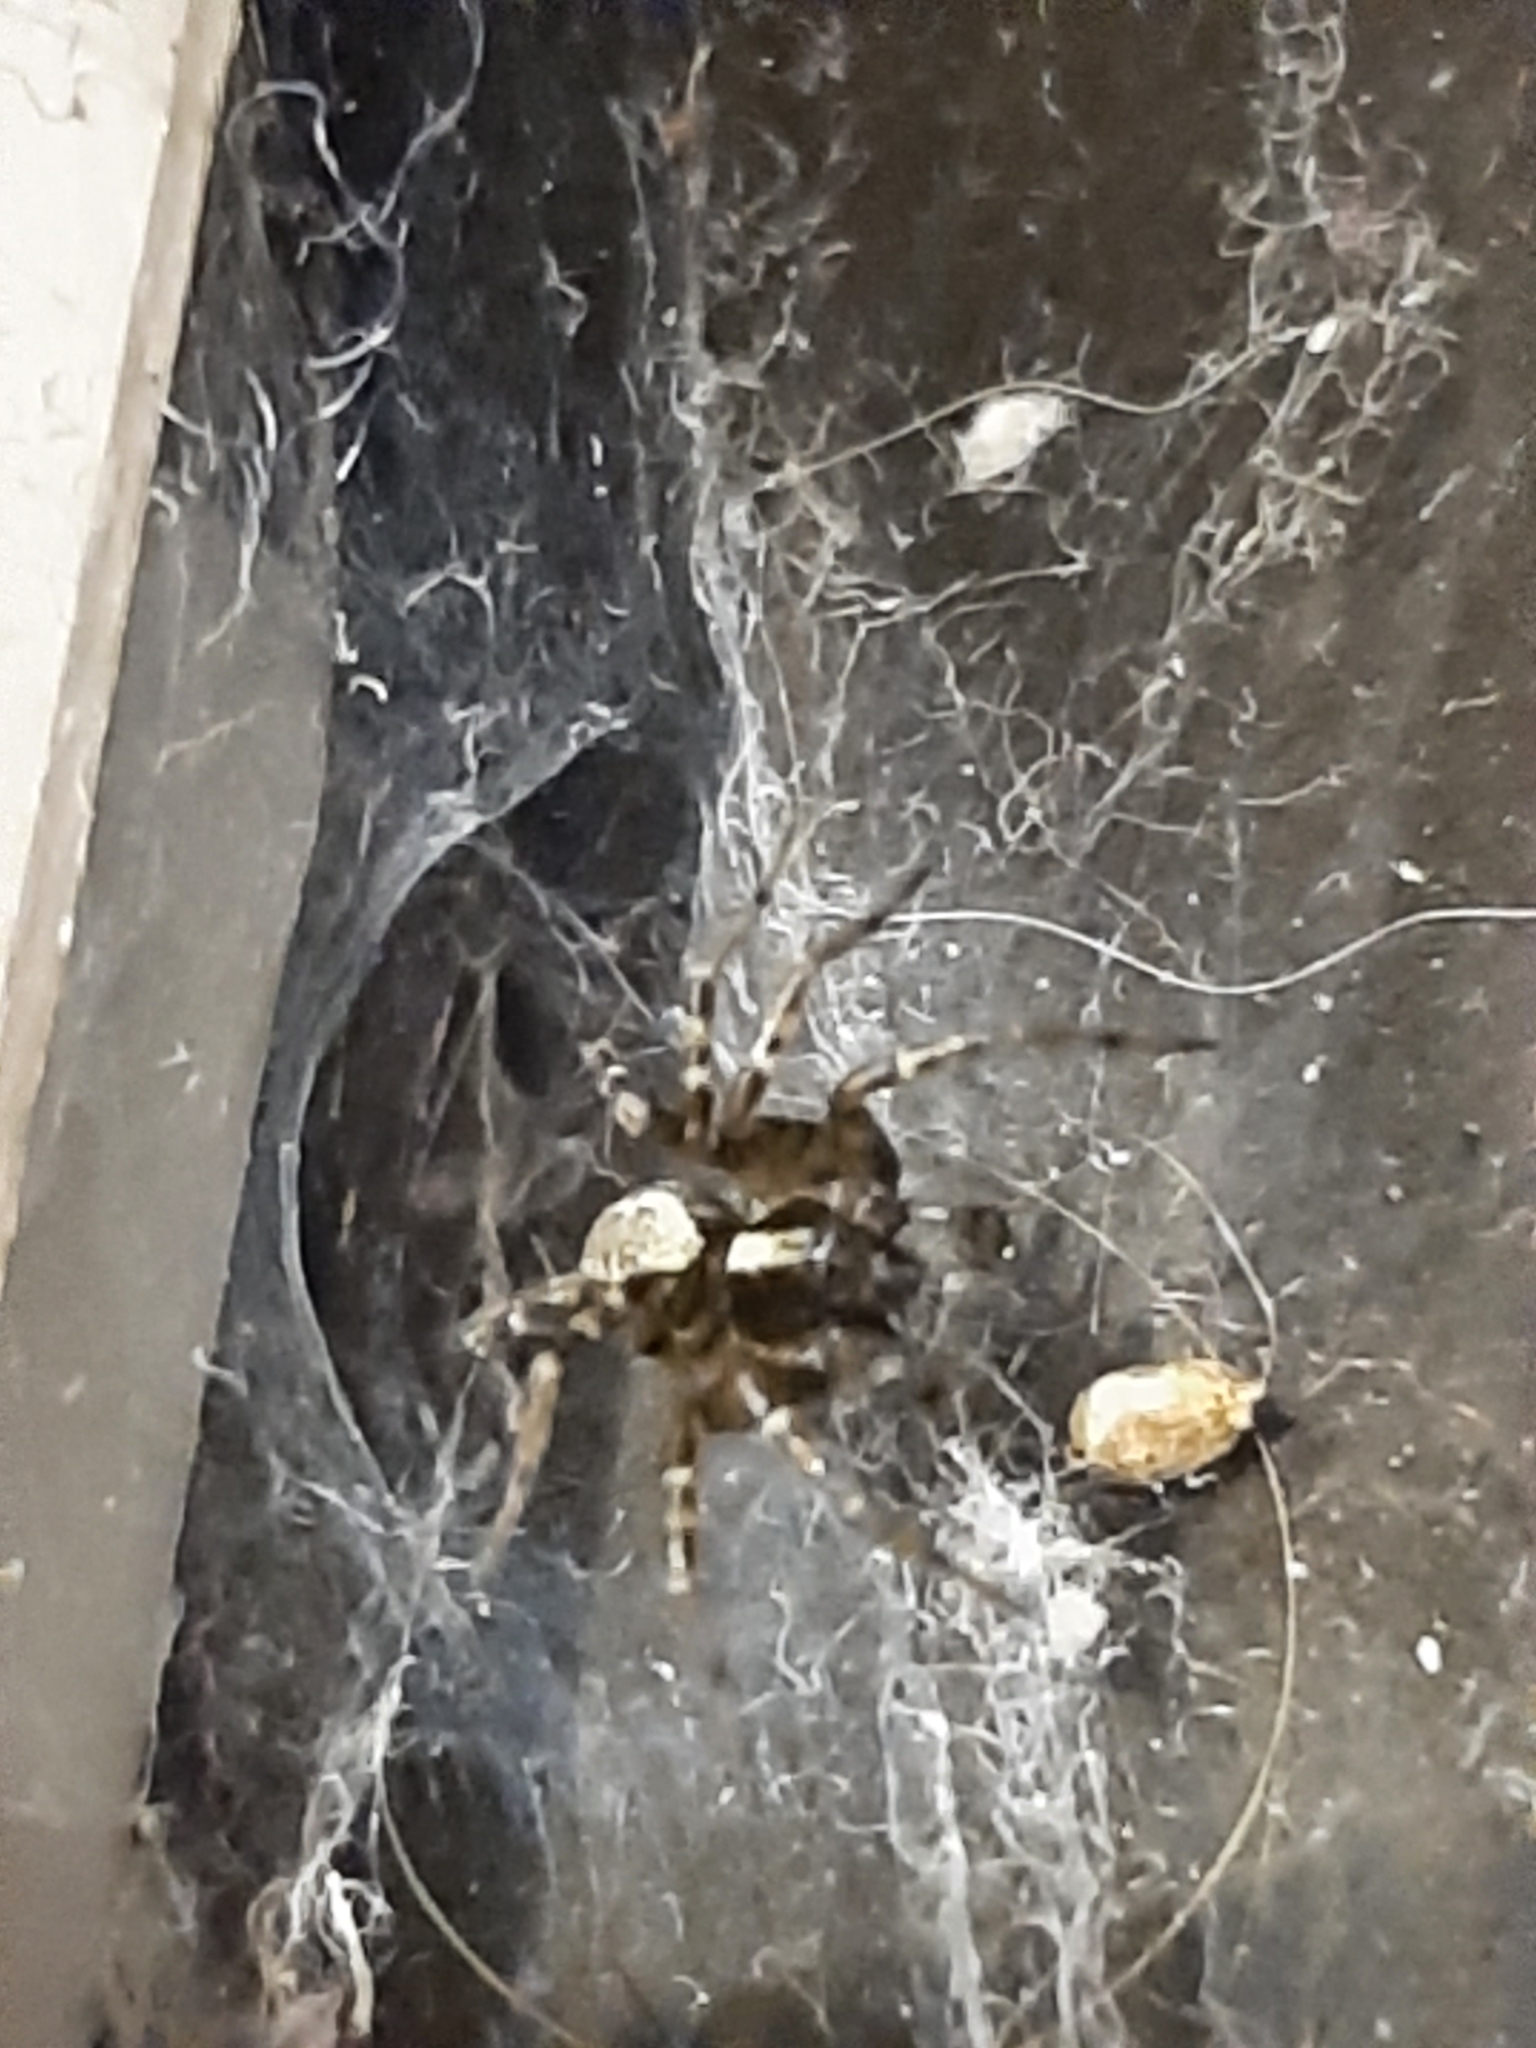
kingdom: Animalia
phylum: Arthropoda
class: Arachnida
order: Araneae
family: Agelenidae
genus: Textrix
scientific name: Textrix denticulata
